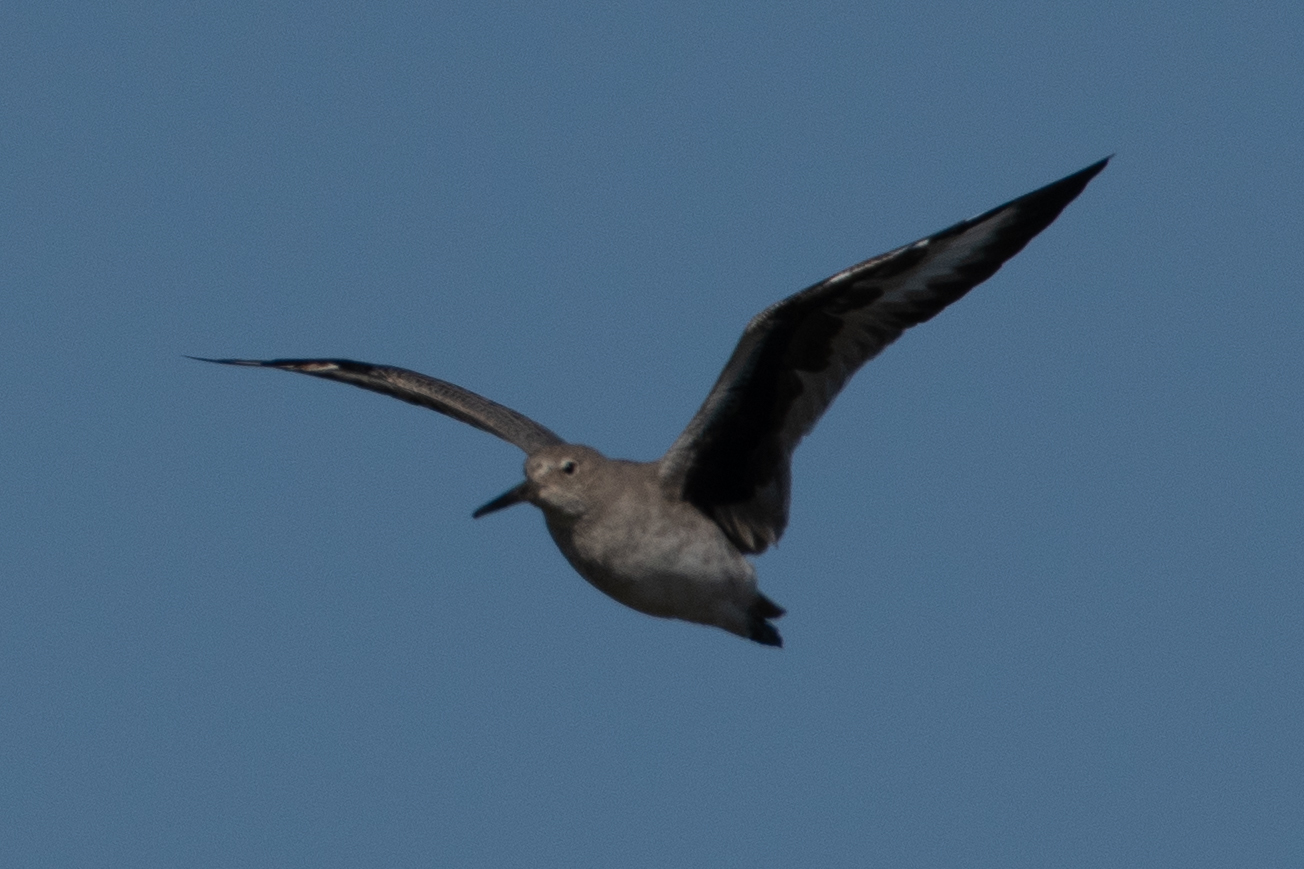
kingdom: Animalia
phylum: Chordata
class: Aves
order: Charadriiformes
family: Scolopacidae
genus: Tringa
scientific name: Tringa semipalmata
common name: Willet
